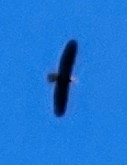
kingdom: Animalia
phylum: Chordata
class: Aves
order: Accipitriformes
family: Accipitridae
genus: Haliaeetus
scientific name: Haliaeetus leucocephalus
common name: Bald eagle
